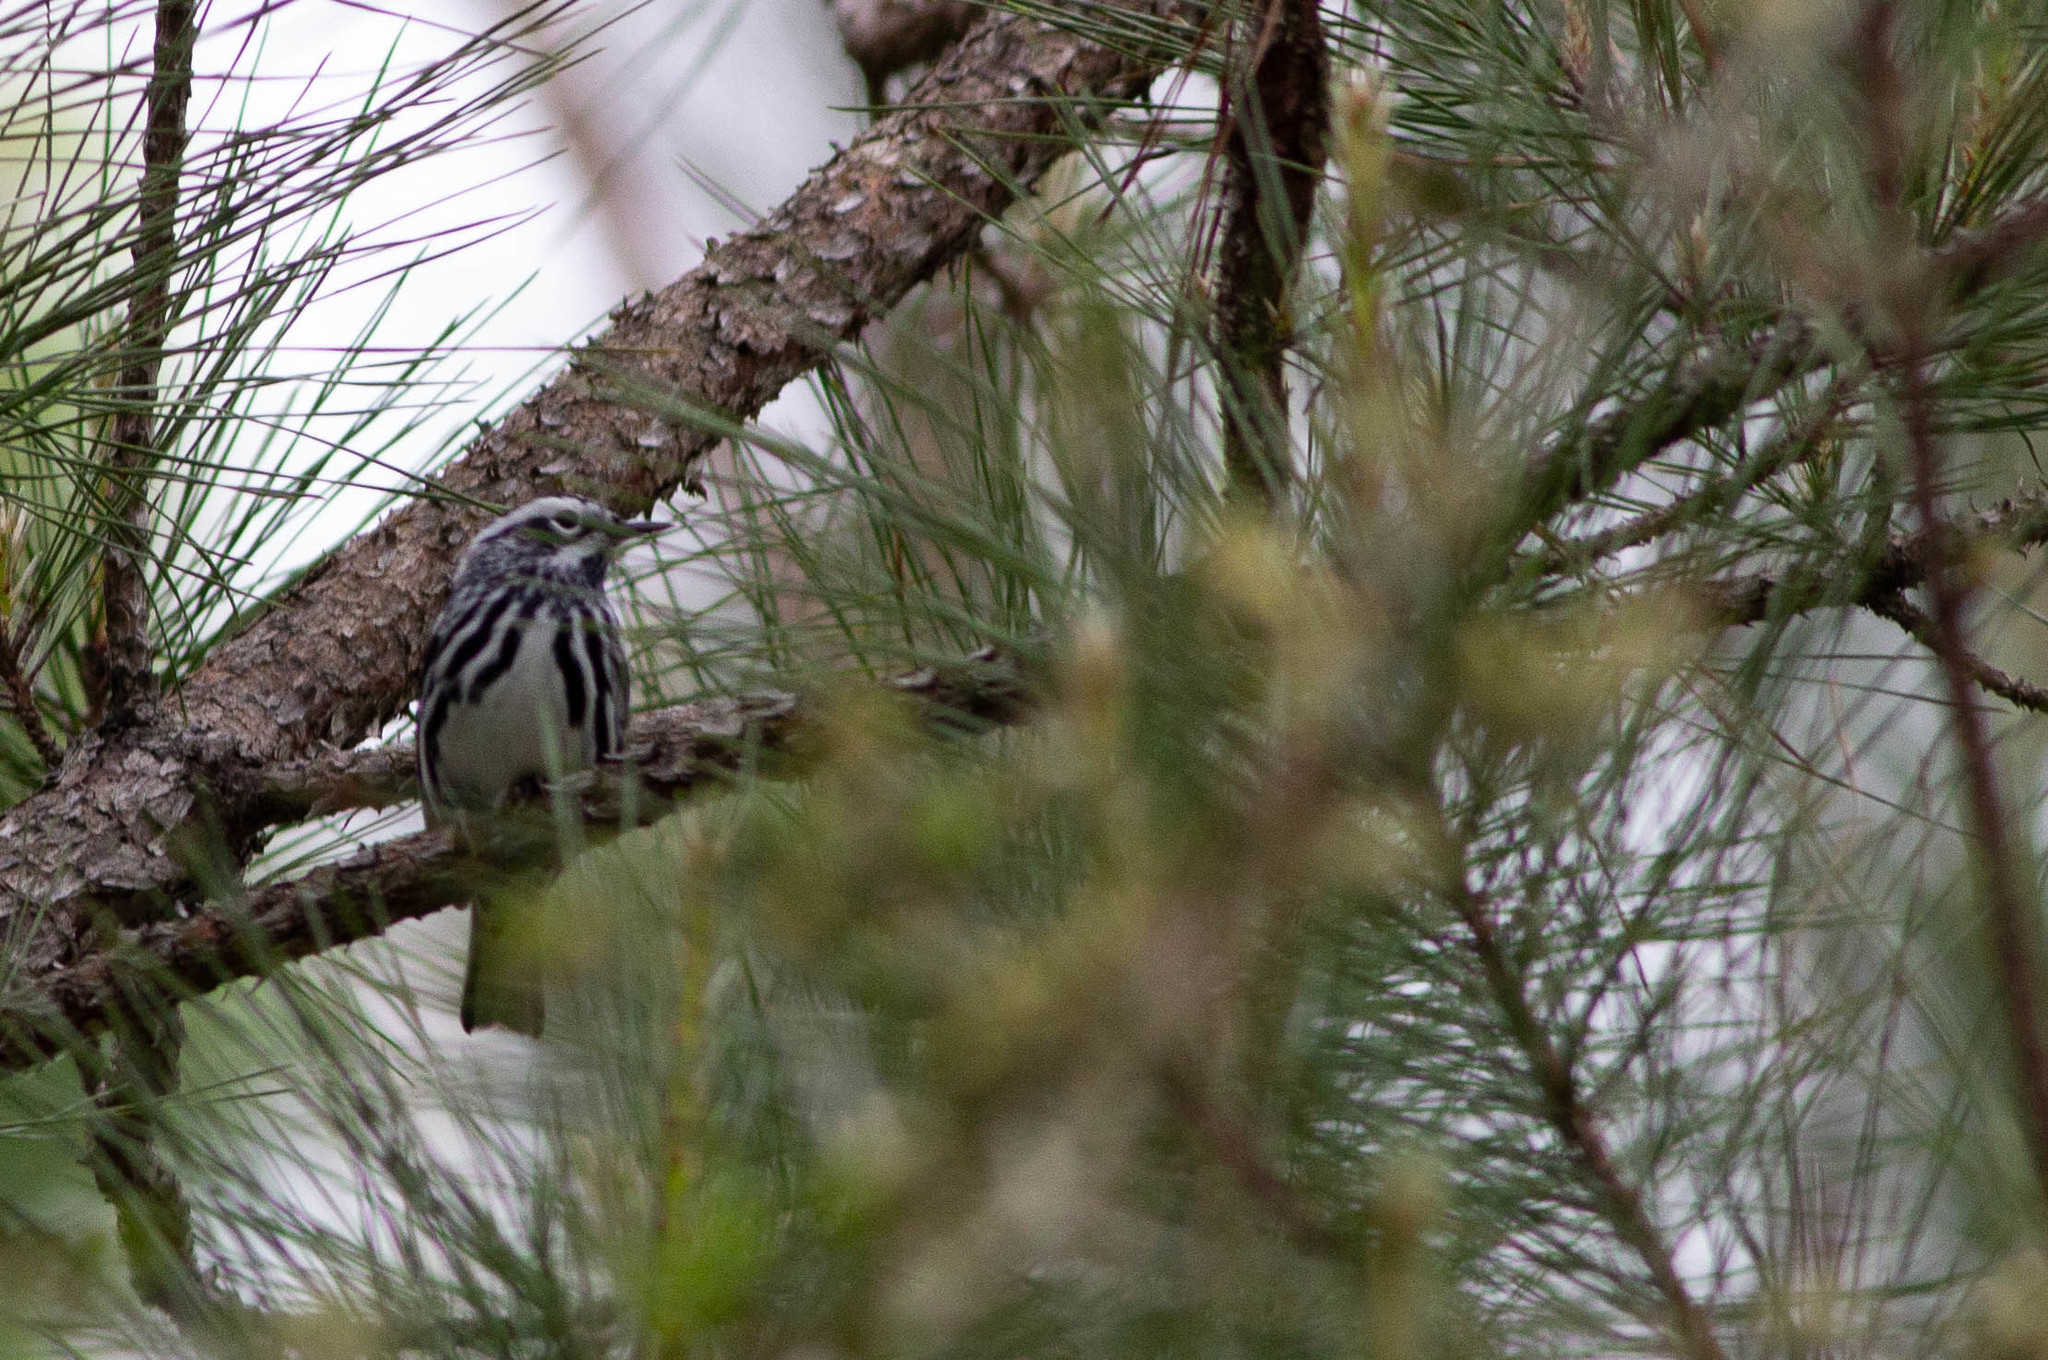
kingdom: Animalia
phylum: Chordata
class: Aves
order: Passeriformes
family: Parulidae
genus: Mniotilta
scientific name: Mniotilta varia
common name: Black-and-white warbler
